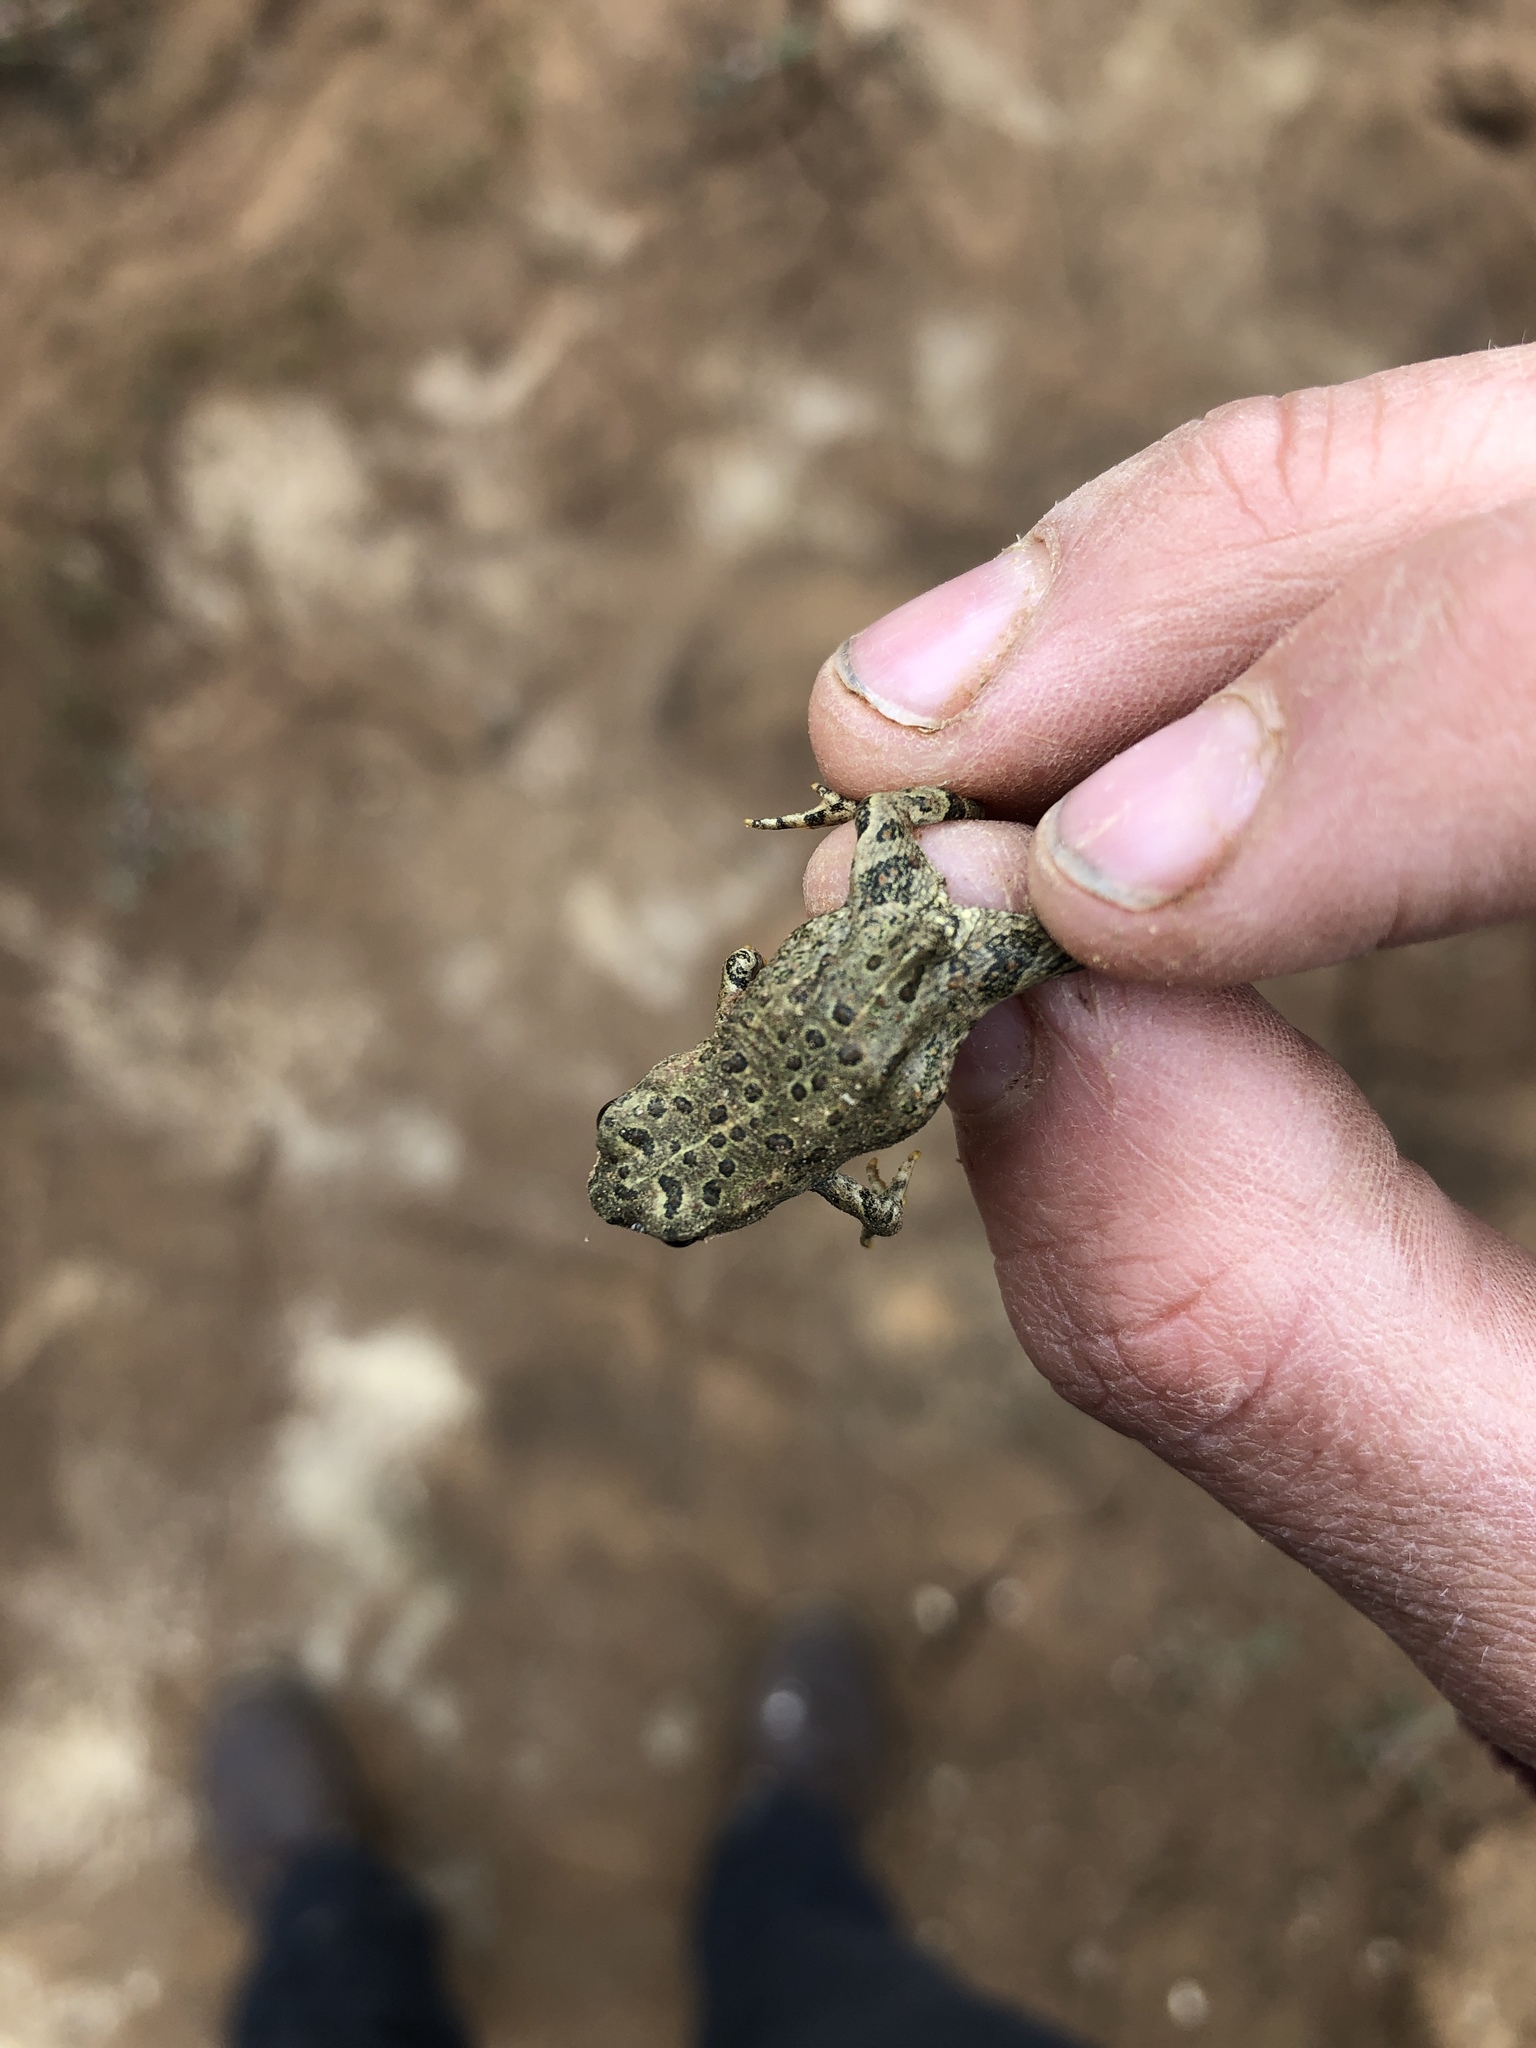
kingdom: Animalia
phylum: Chordata
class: Amphibia
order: Anura
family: Bufonidae
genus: Anaxyrus
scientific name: Anaxyrus boreas
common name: Western toad
